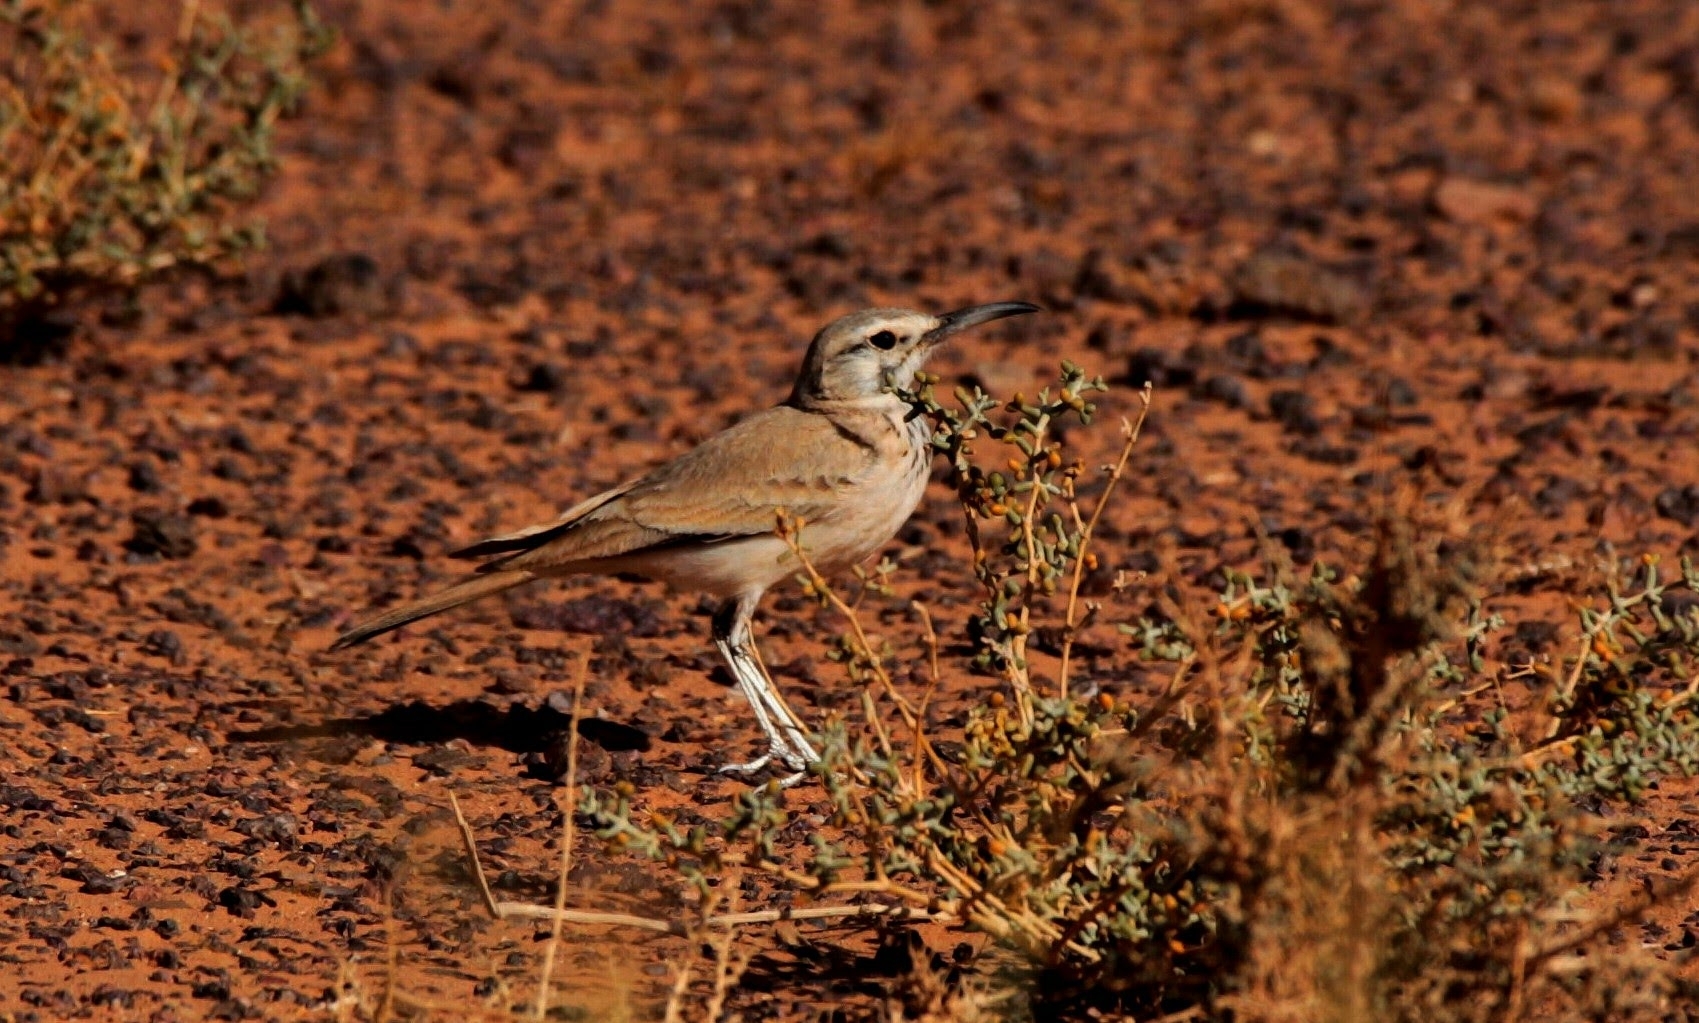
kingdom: Animalia
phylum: Chordata
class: Aves
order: Passeriformes
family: Alaudidae
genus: Alaemon
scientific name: Alaemon alaudipes
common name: Greater hoopoe-lark
